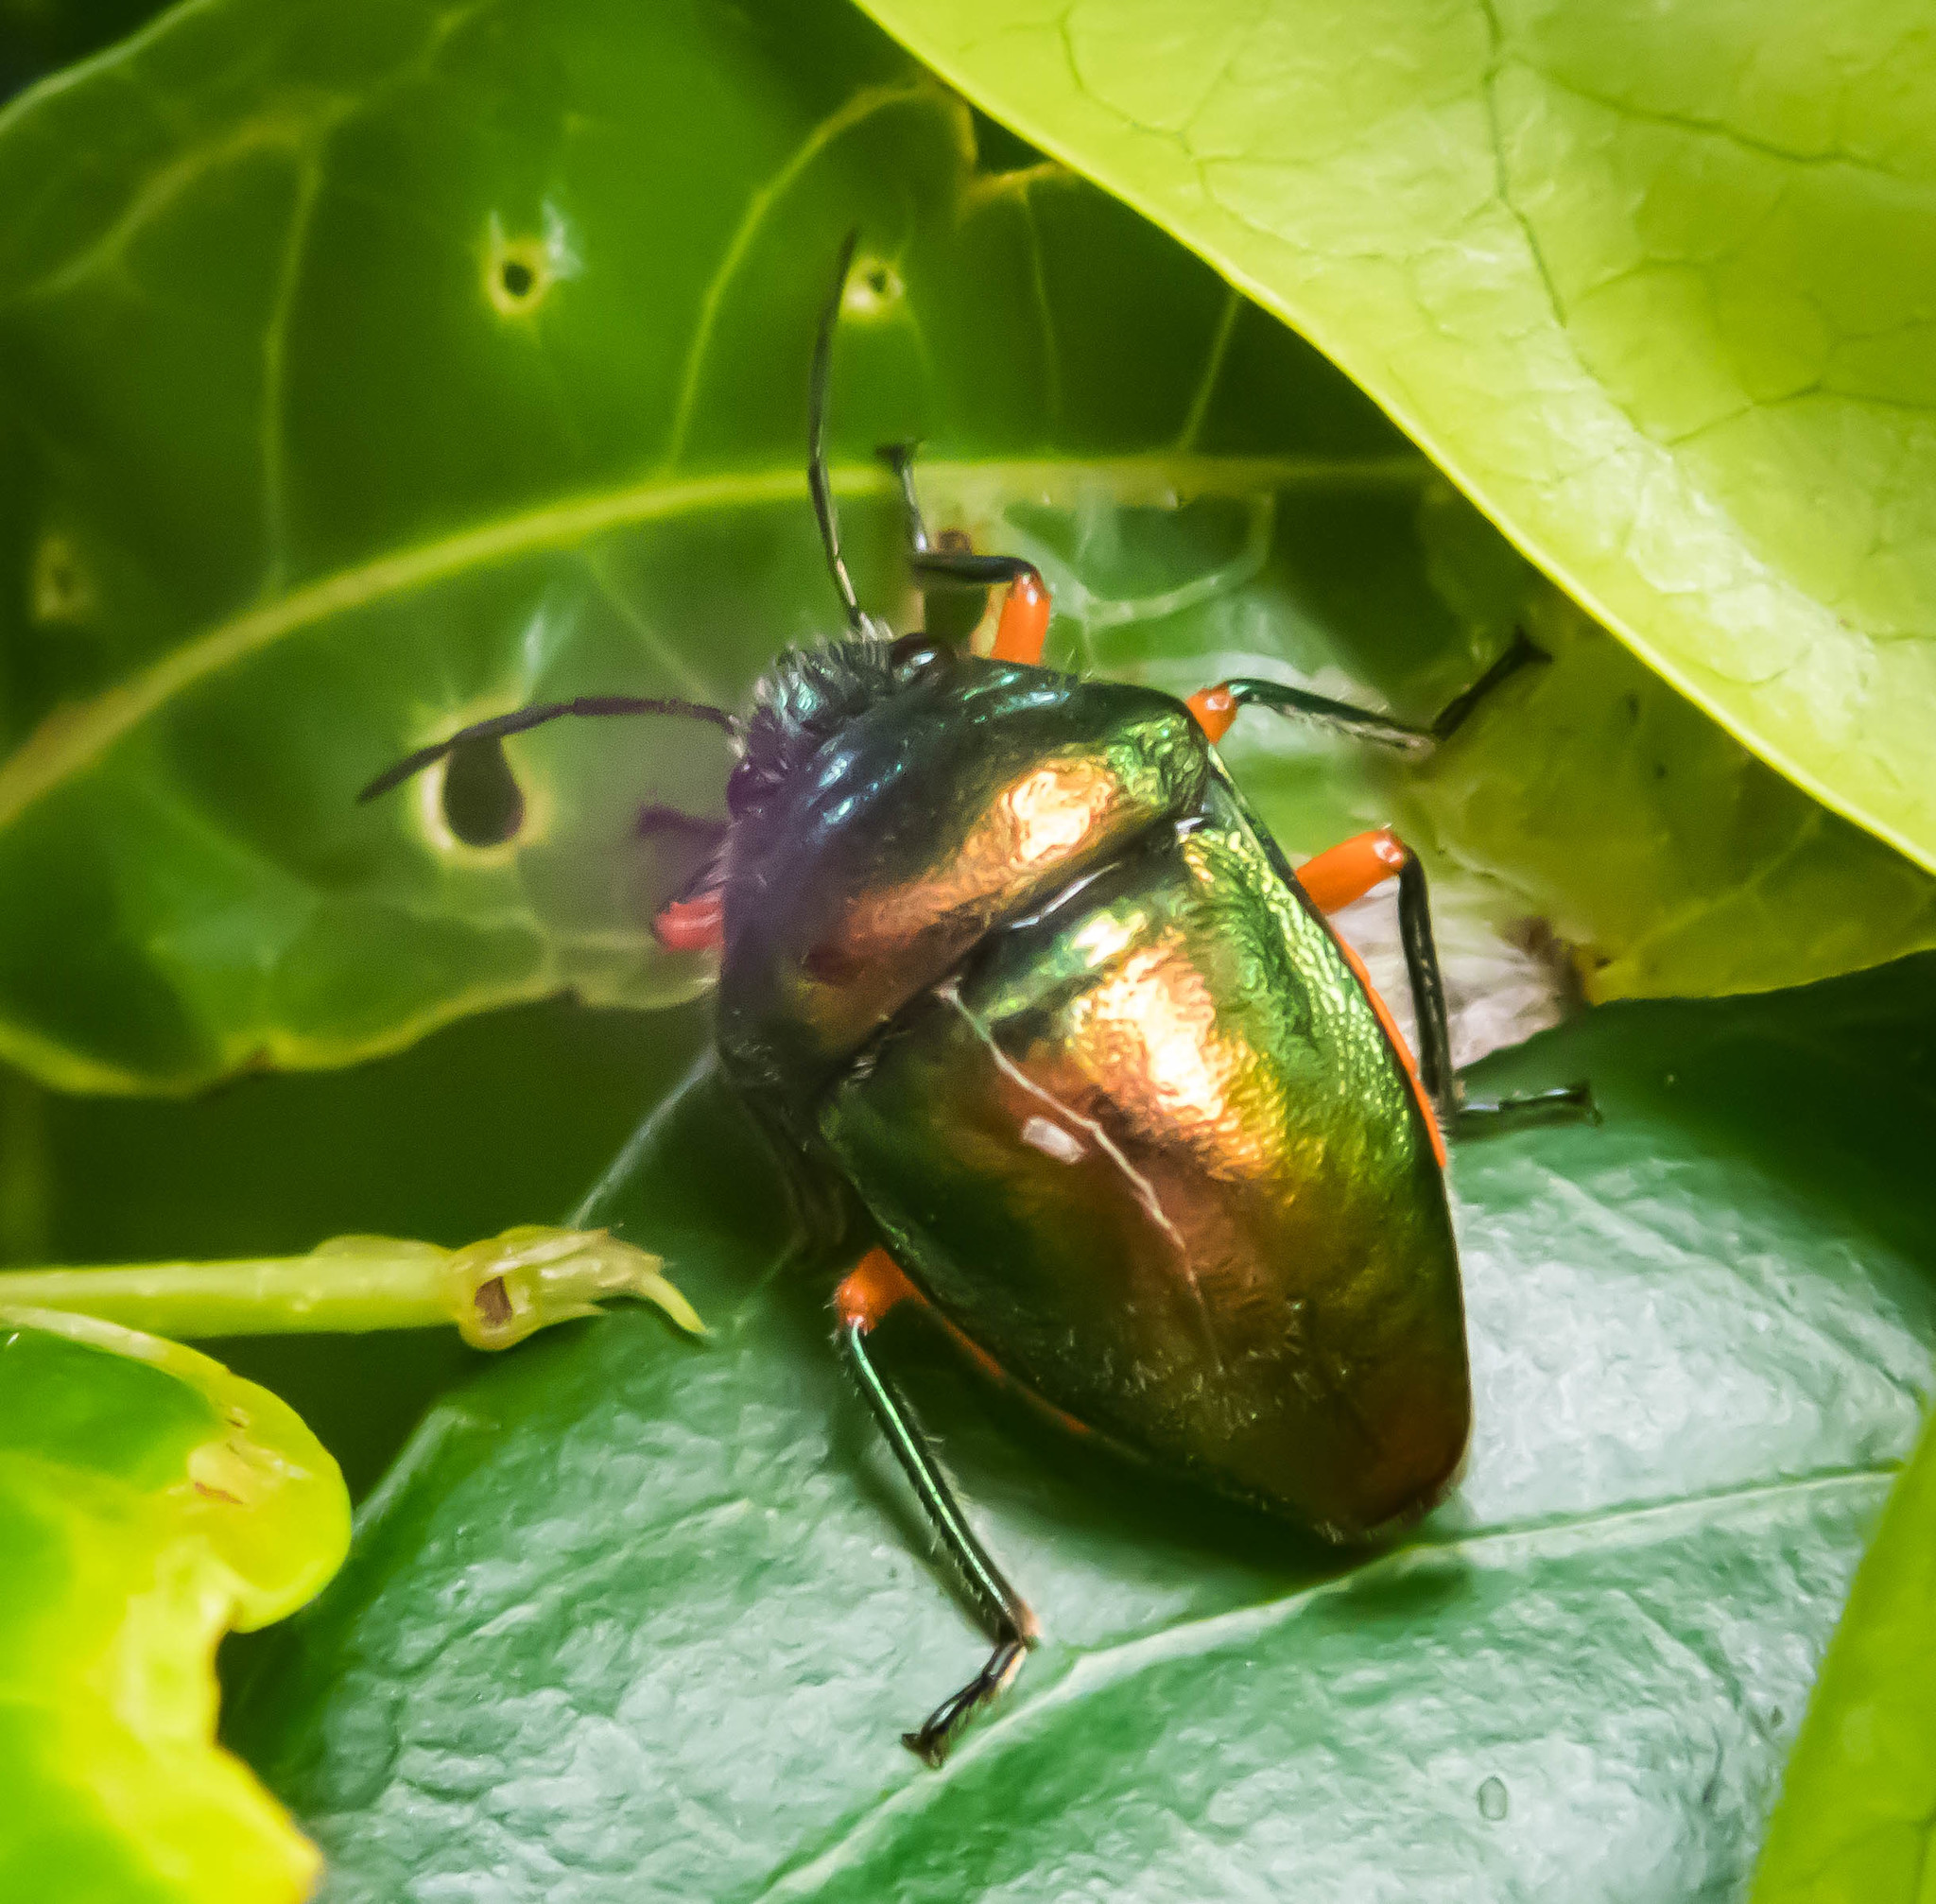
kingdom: Animalia
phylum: Arthropoda
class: Insecta
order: Hemiptera
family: Scutelleridae
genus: Lampromicra
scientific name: Lampromicra senator
